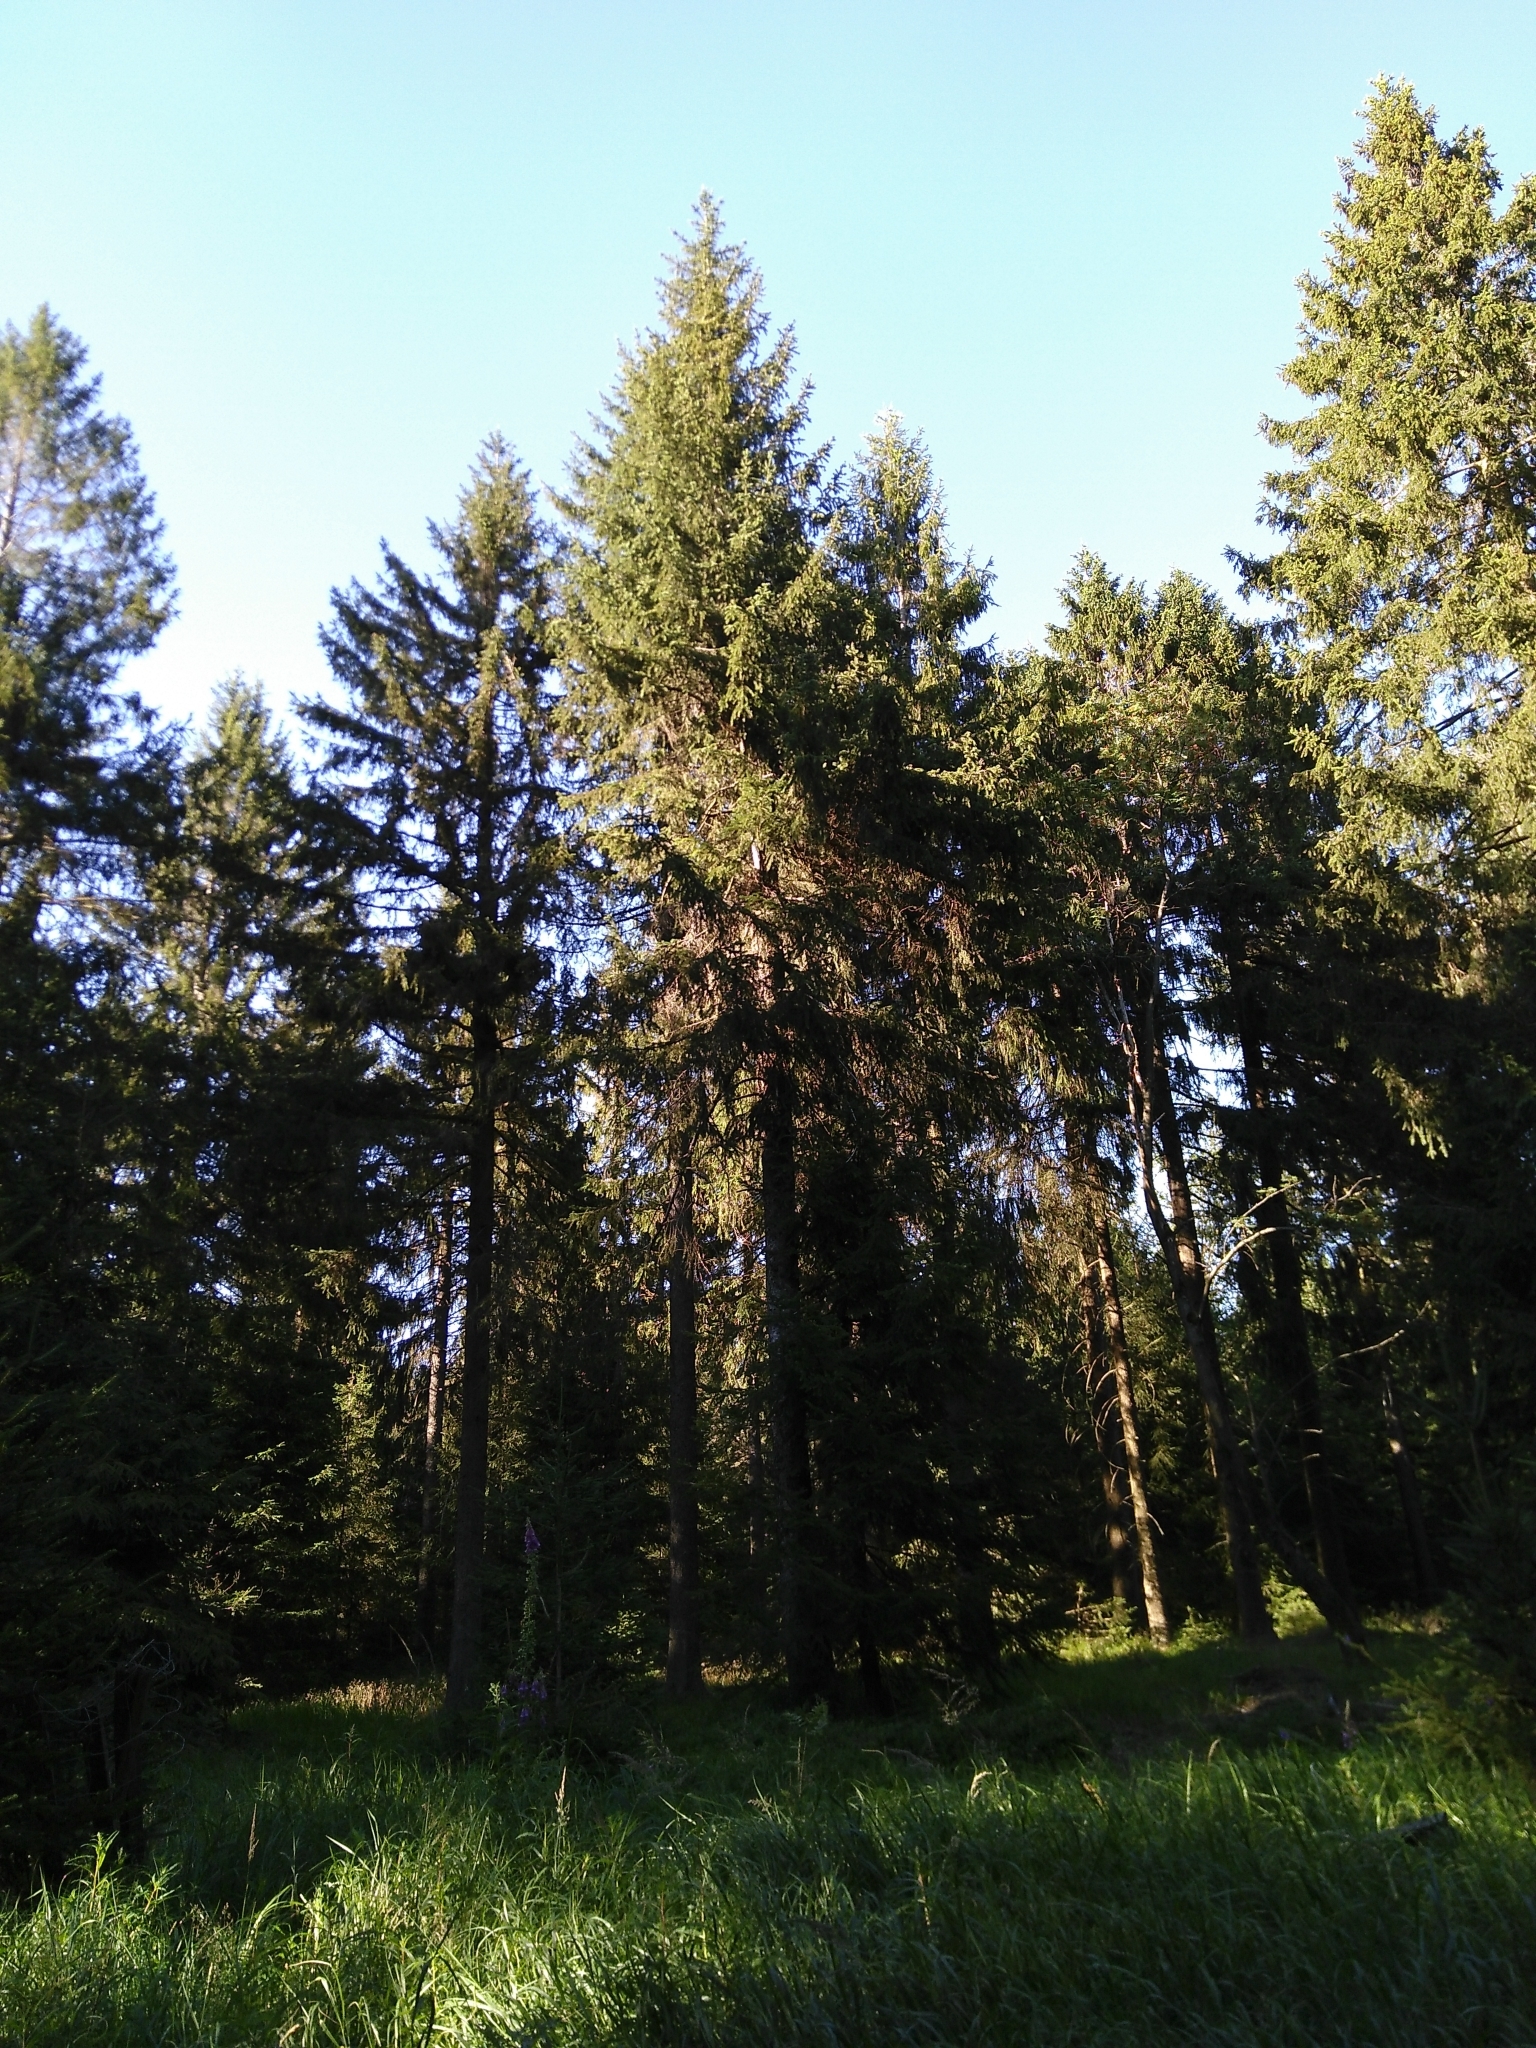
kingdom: Plantae
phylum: Tracheophyta
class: Magnoliopsida
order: Lamiales
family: Plantaginaceae
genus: Digitalis
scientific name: Digitalis purpurea
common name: Foxglove
